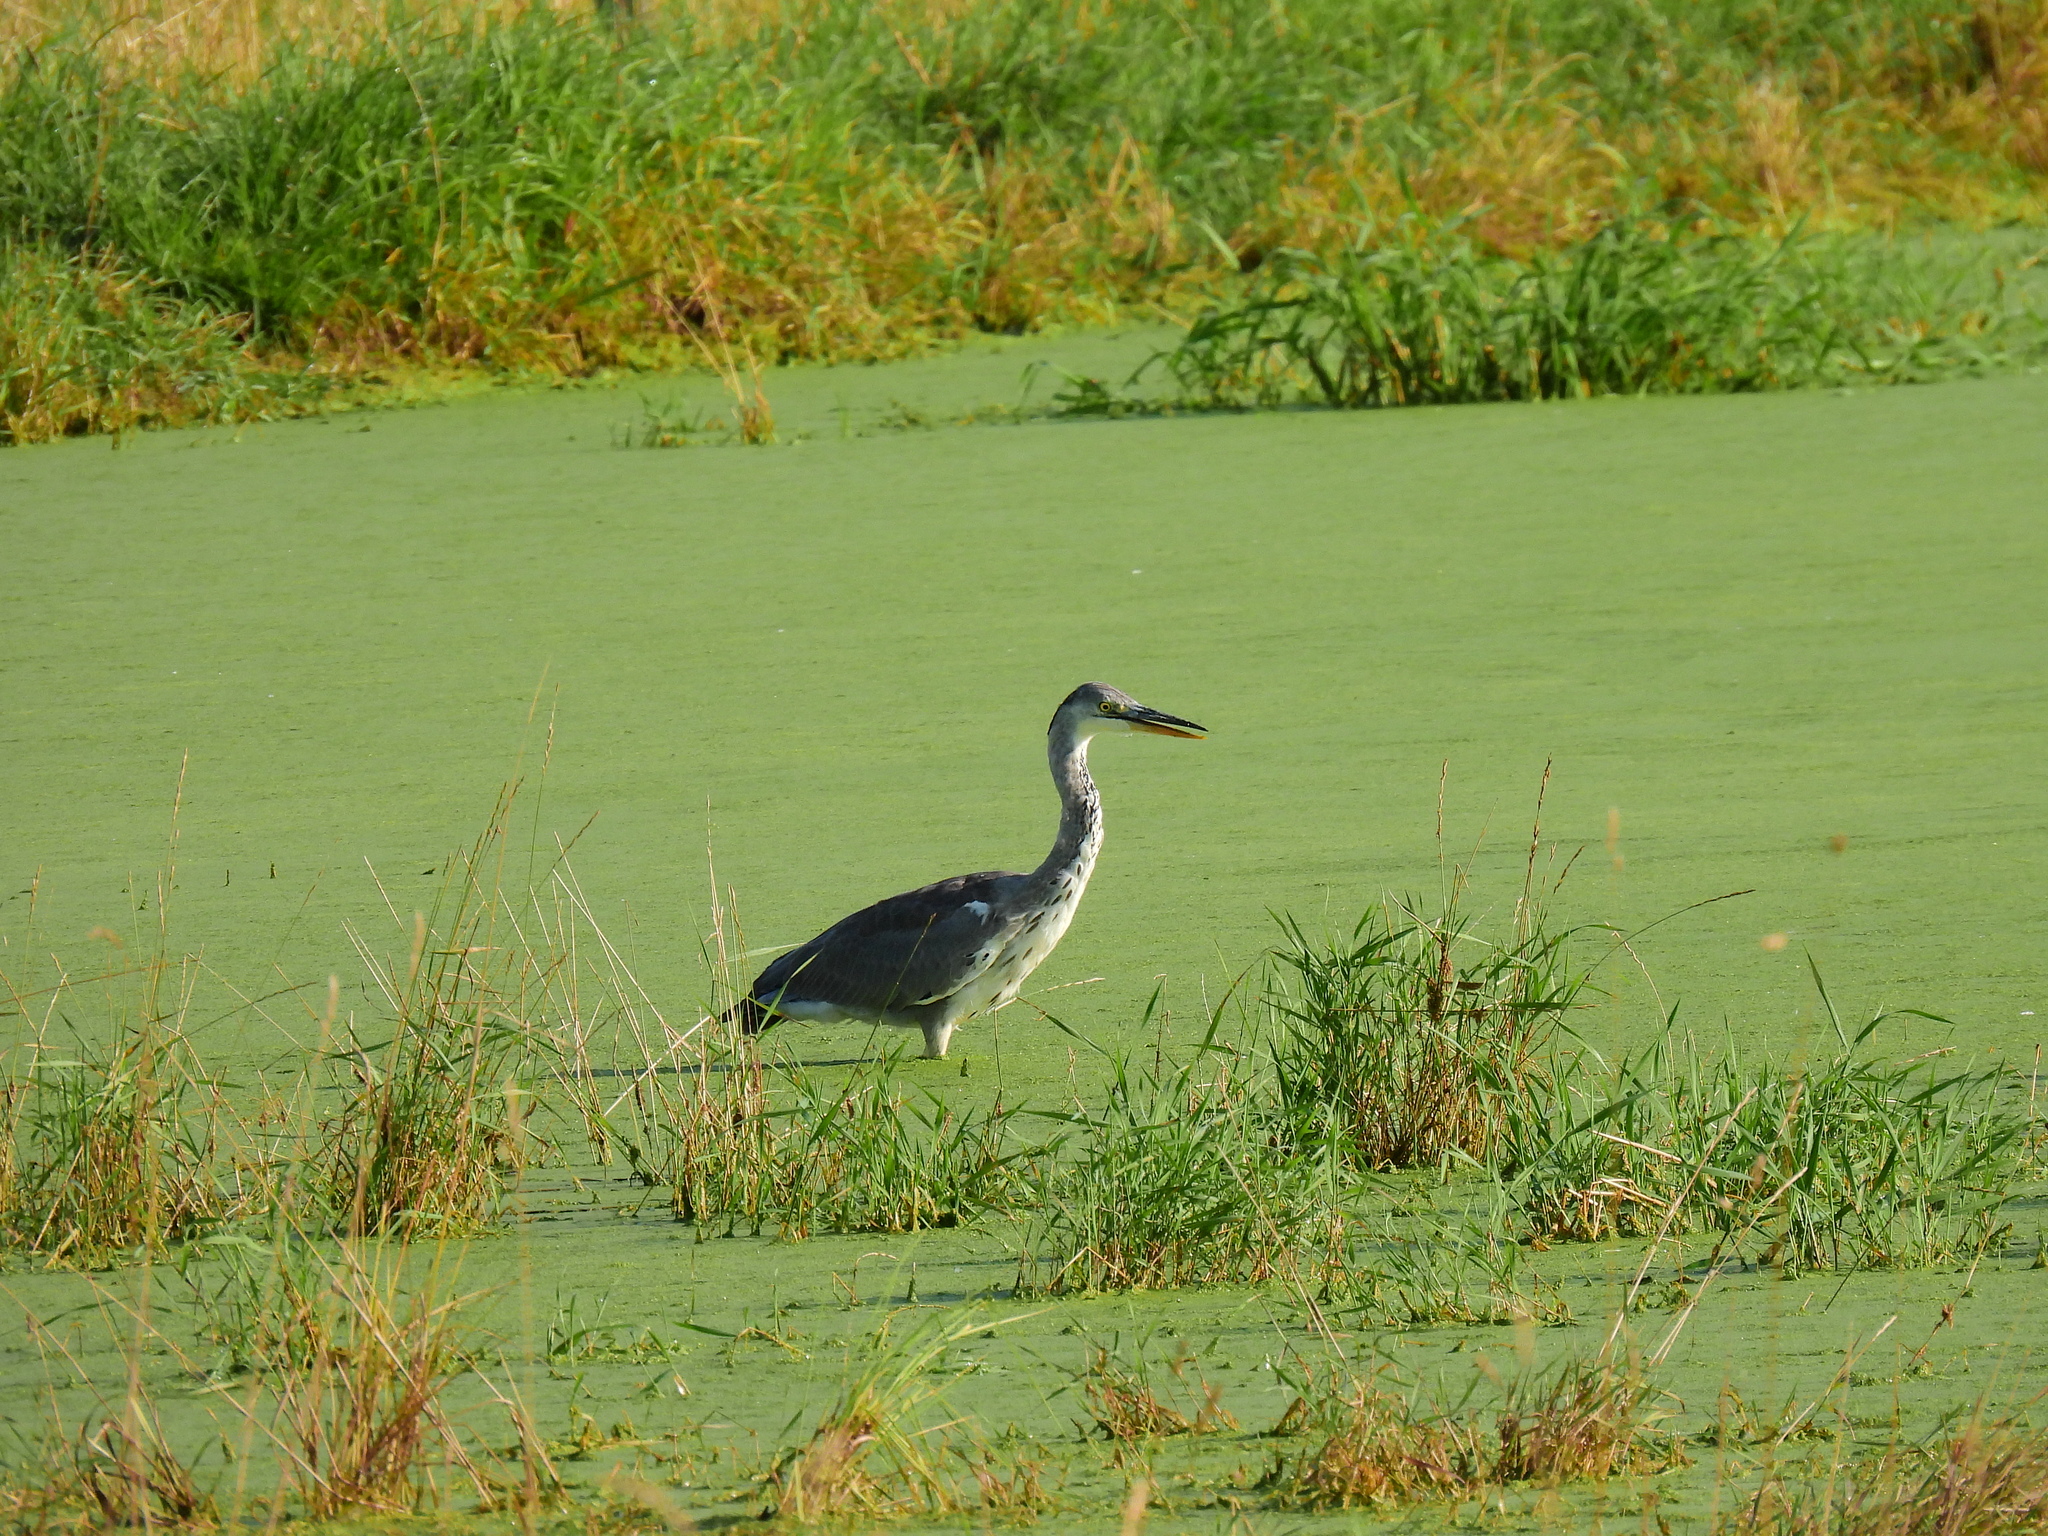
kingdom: Animalia
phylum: Chordata
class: Aves
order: Pelecaniformes
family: Ardeidae
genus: Ardea
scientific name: Ardea cinerea
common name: Grey heron
